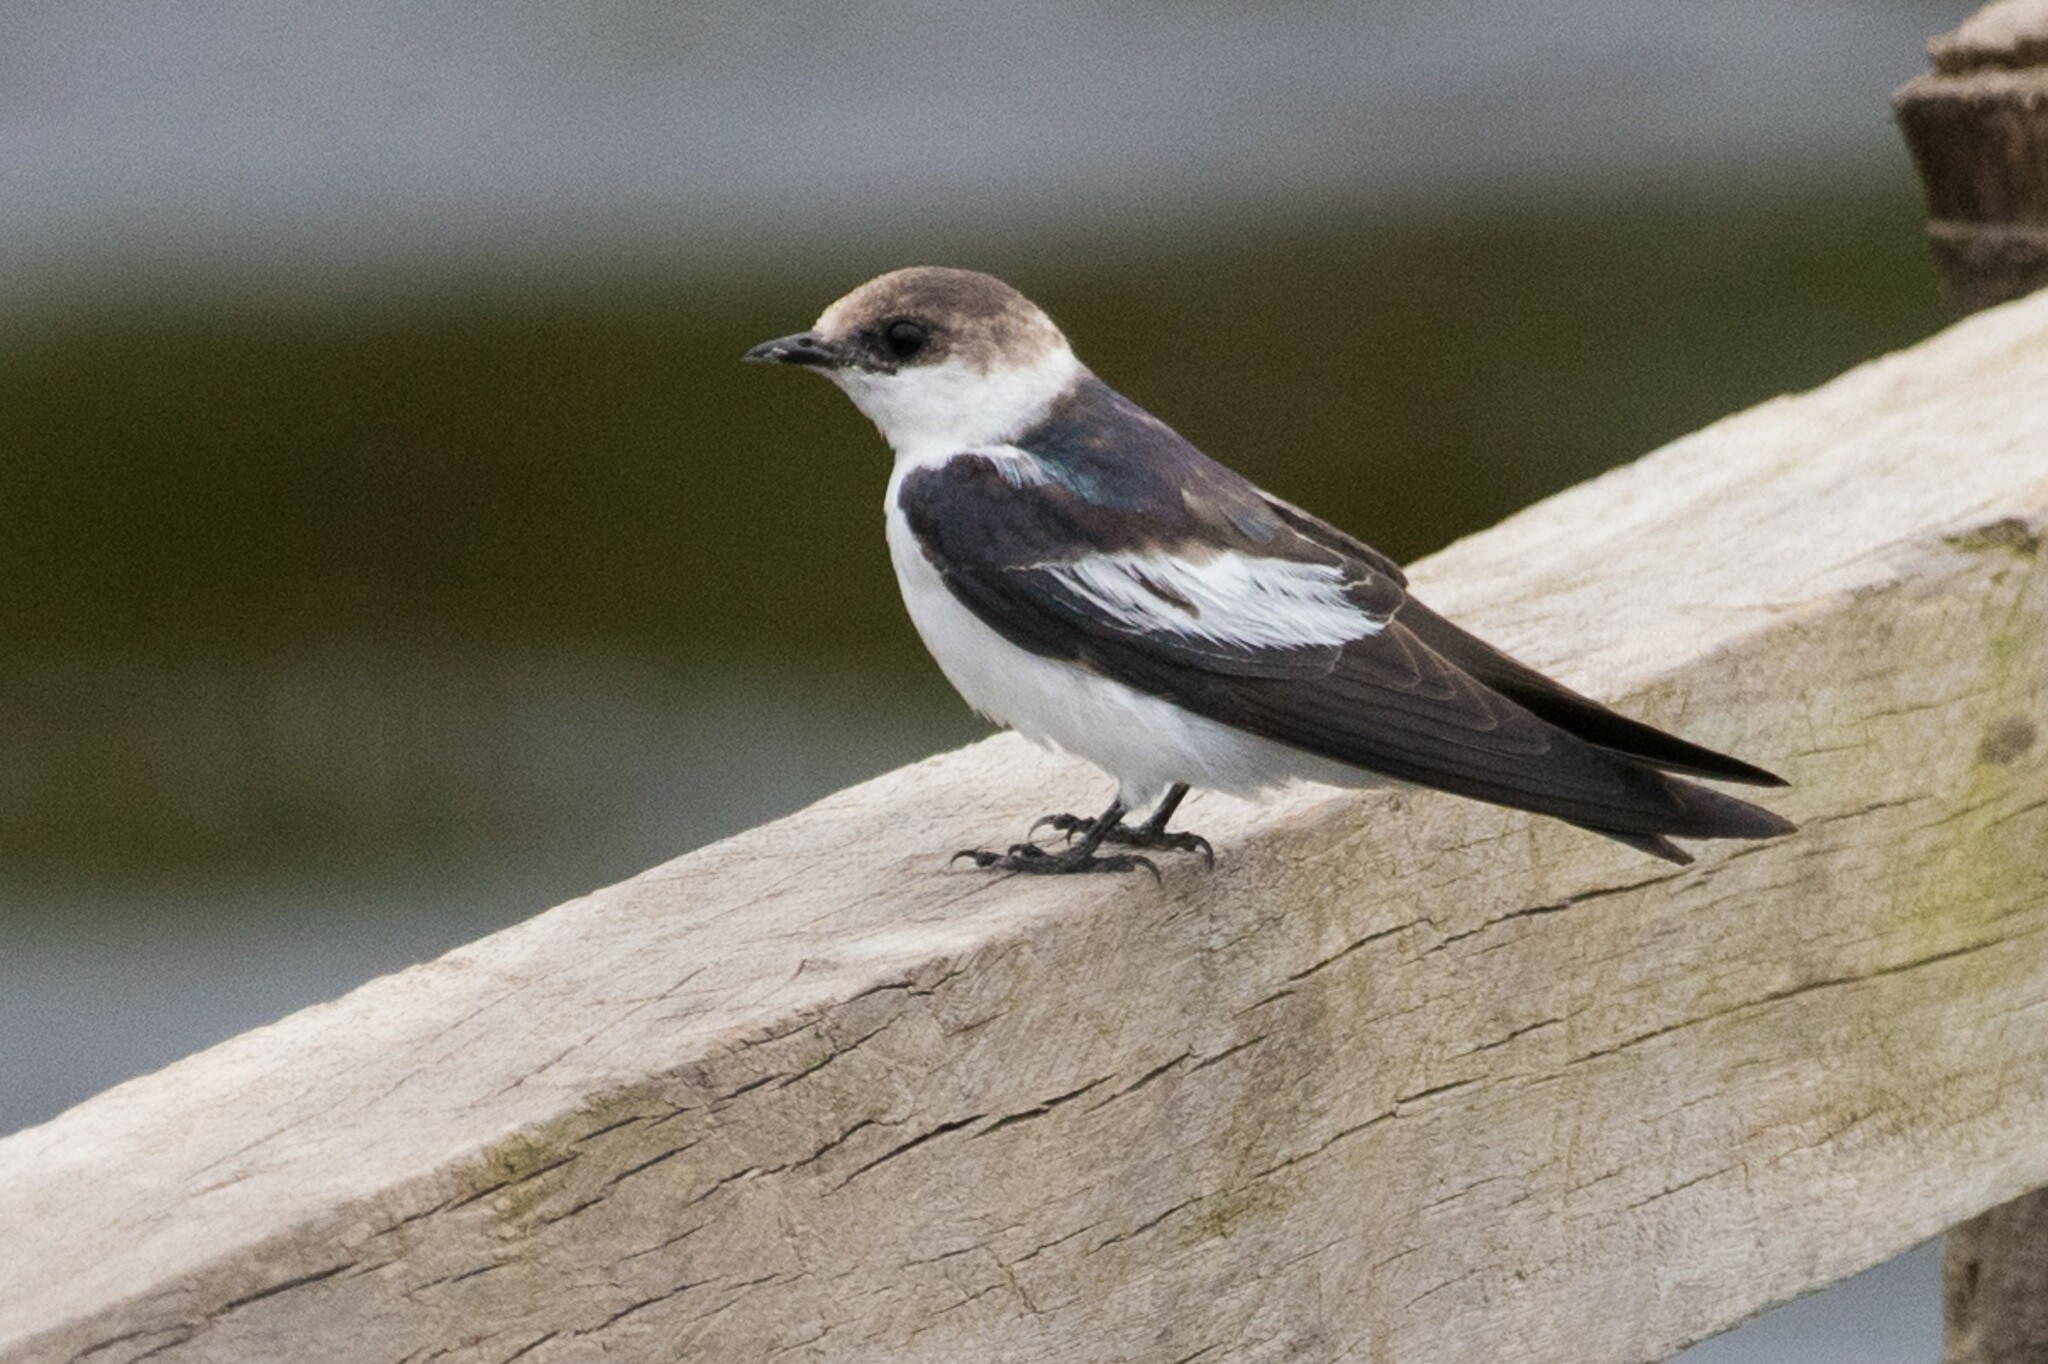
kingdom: Animalia
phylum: Chordata
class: Aves
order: Passeriformes
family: Hirundinidae
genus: Tachycineta
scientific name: Tachycineta albiventer
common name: White-winged swallow
